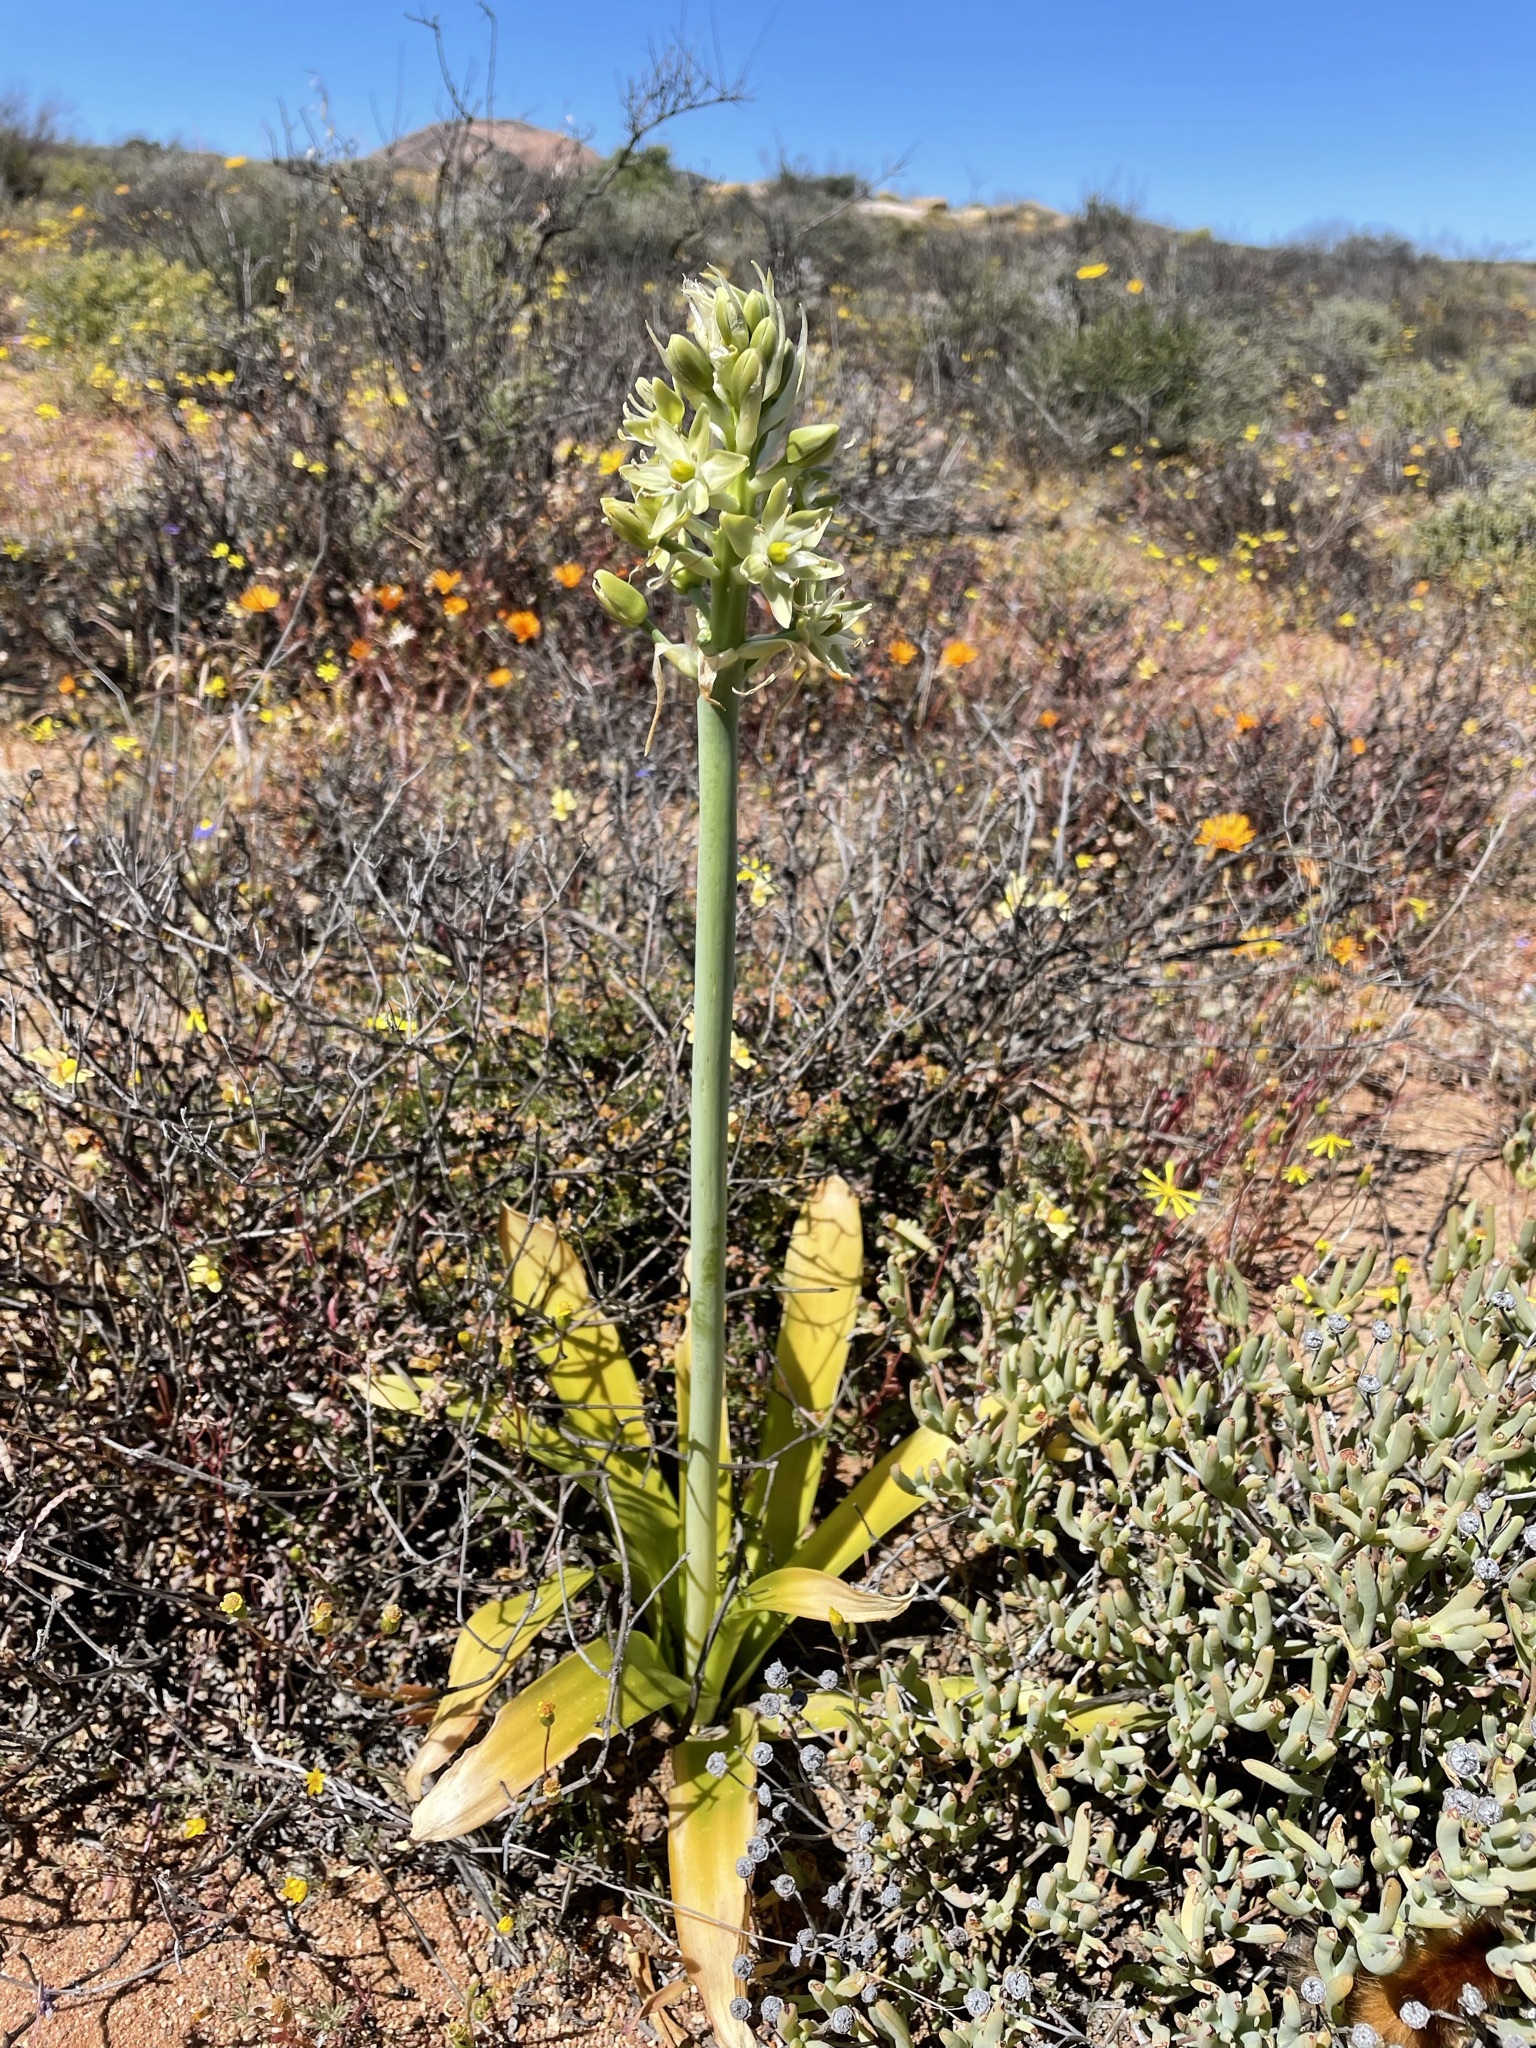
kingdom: Plantae
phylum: Tracheophyta
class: Liliopsida
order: Asparagales
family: Asparagaceae
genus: Ornithogalum
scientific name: Ornithogalum xanthochlorum
